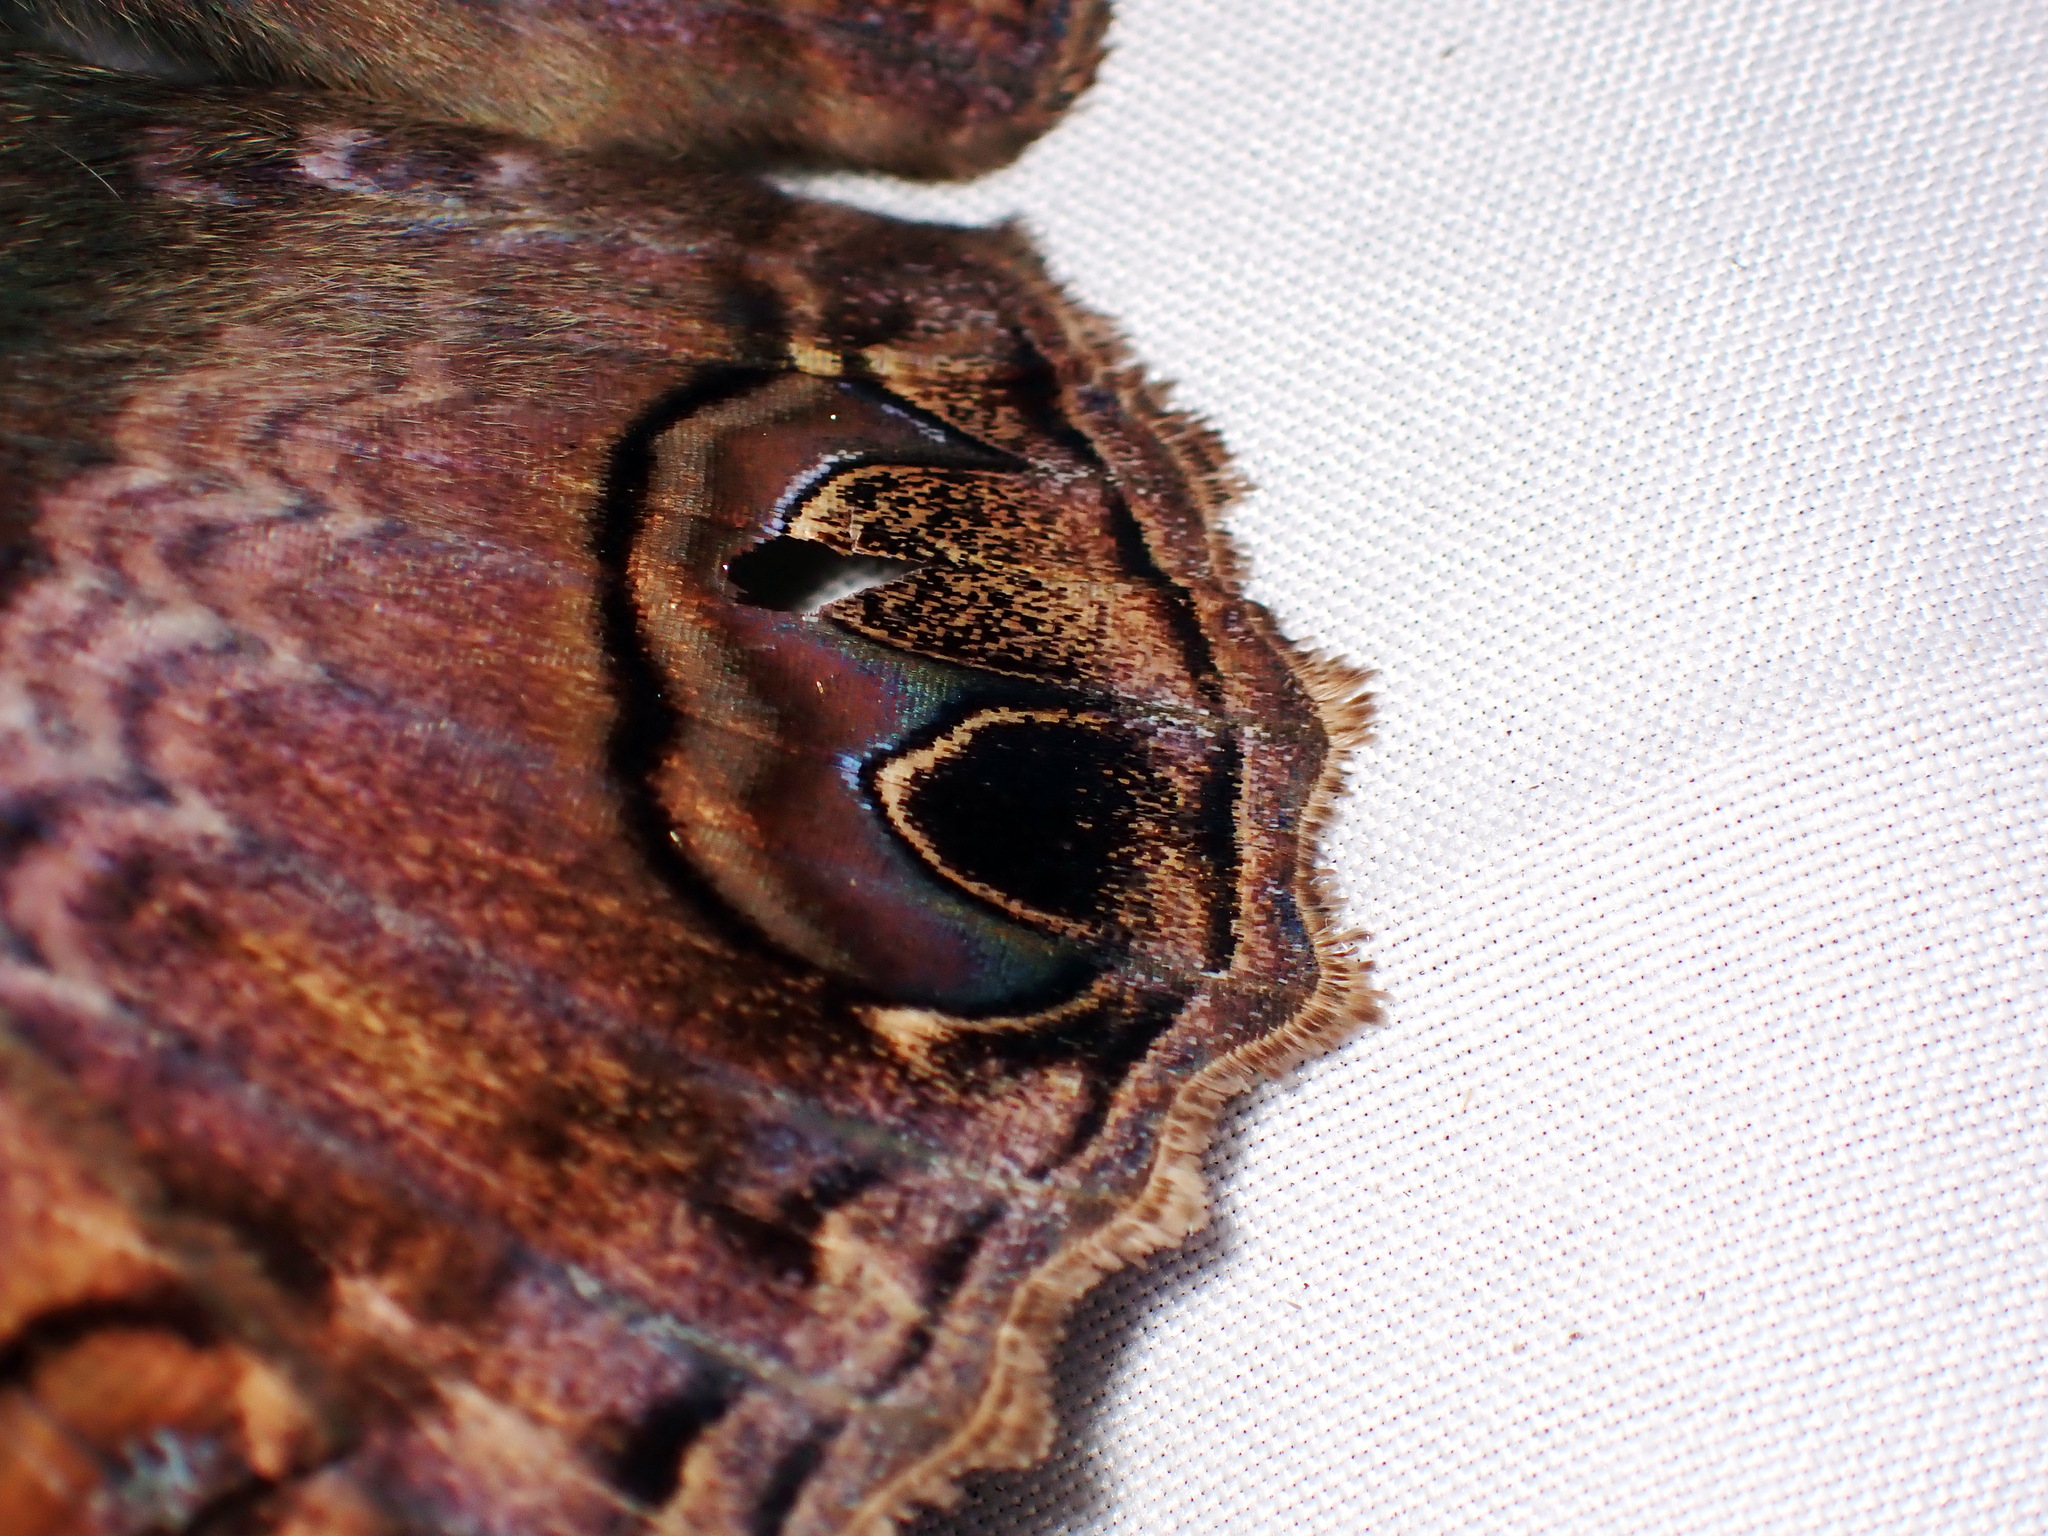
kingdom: Animalia
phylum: Arthropoda
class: Insecta
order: Lepidoptera
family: Erebidae
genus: Ascalapha
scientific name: Ascalapha odorata
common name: Black witch
